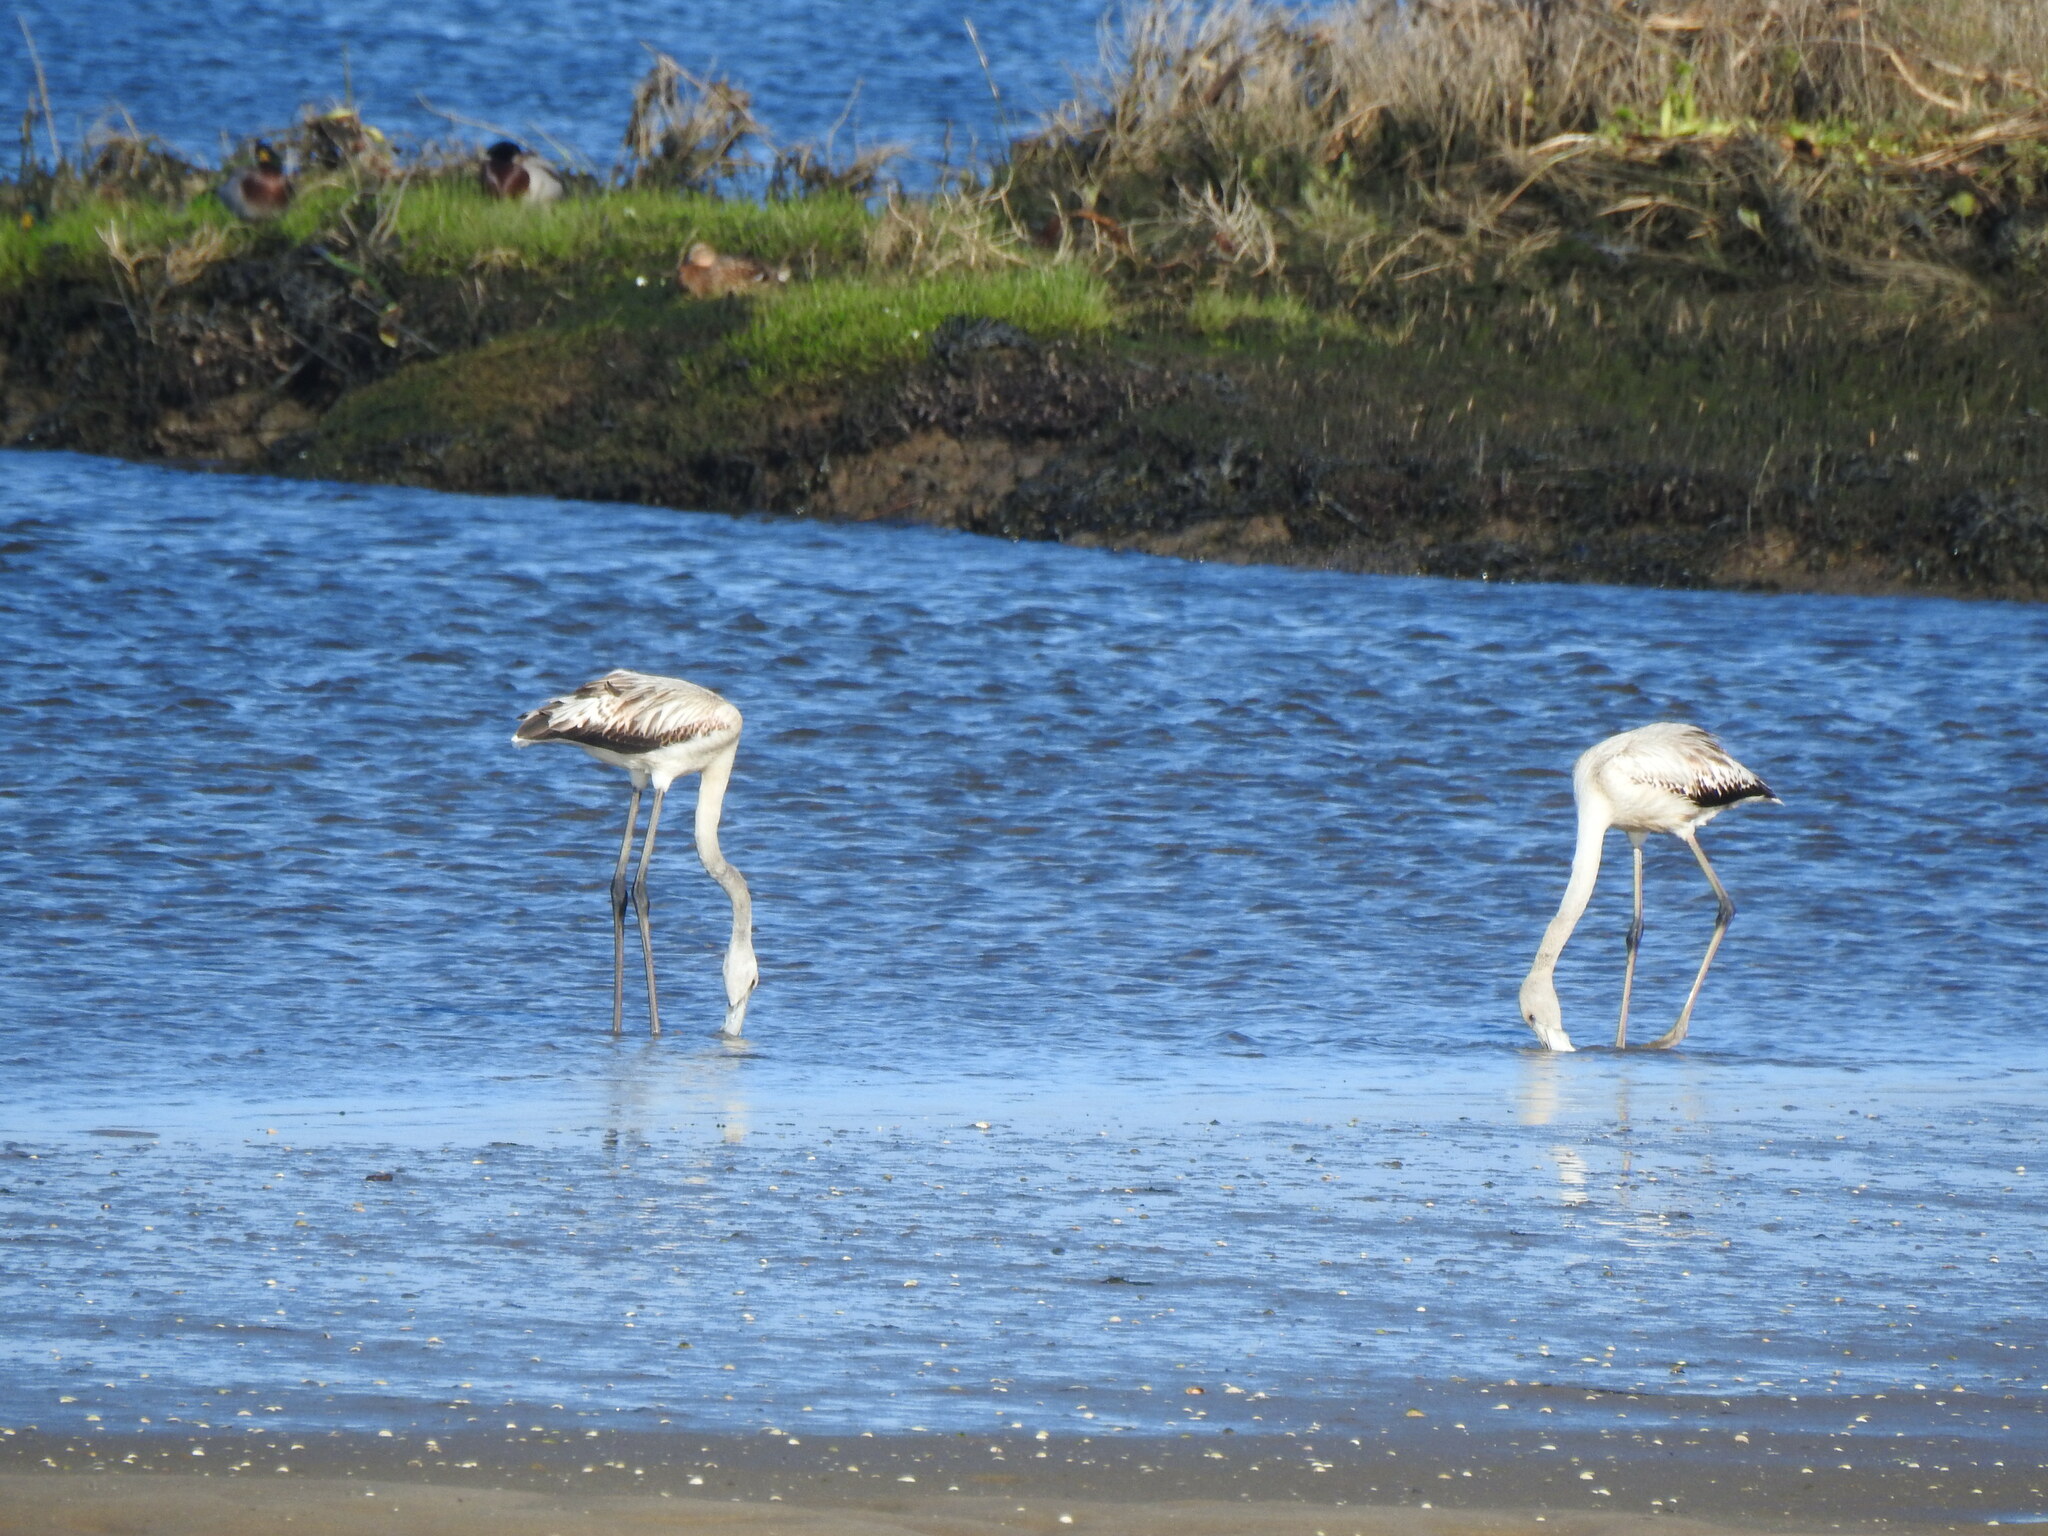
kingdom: Animalia
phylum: Chordata
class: Aves
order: Phoenicopteriformes
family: Phoenicopteridae
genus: Phoenicopterus
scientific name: Phoenicopterus roseus
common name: Greater flamingo
